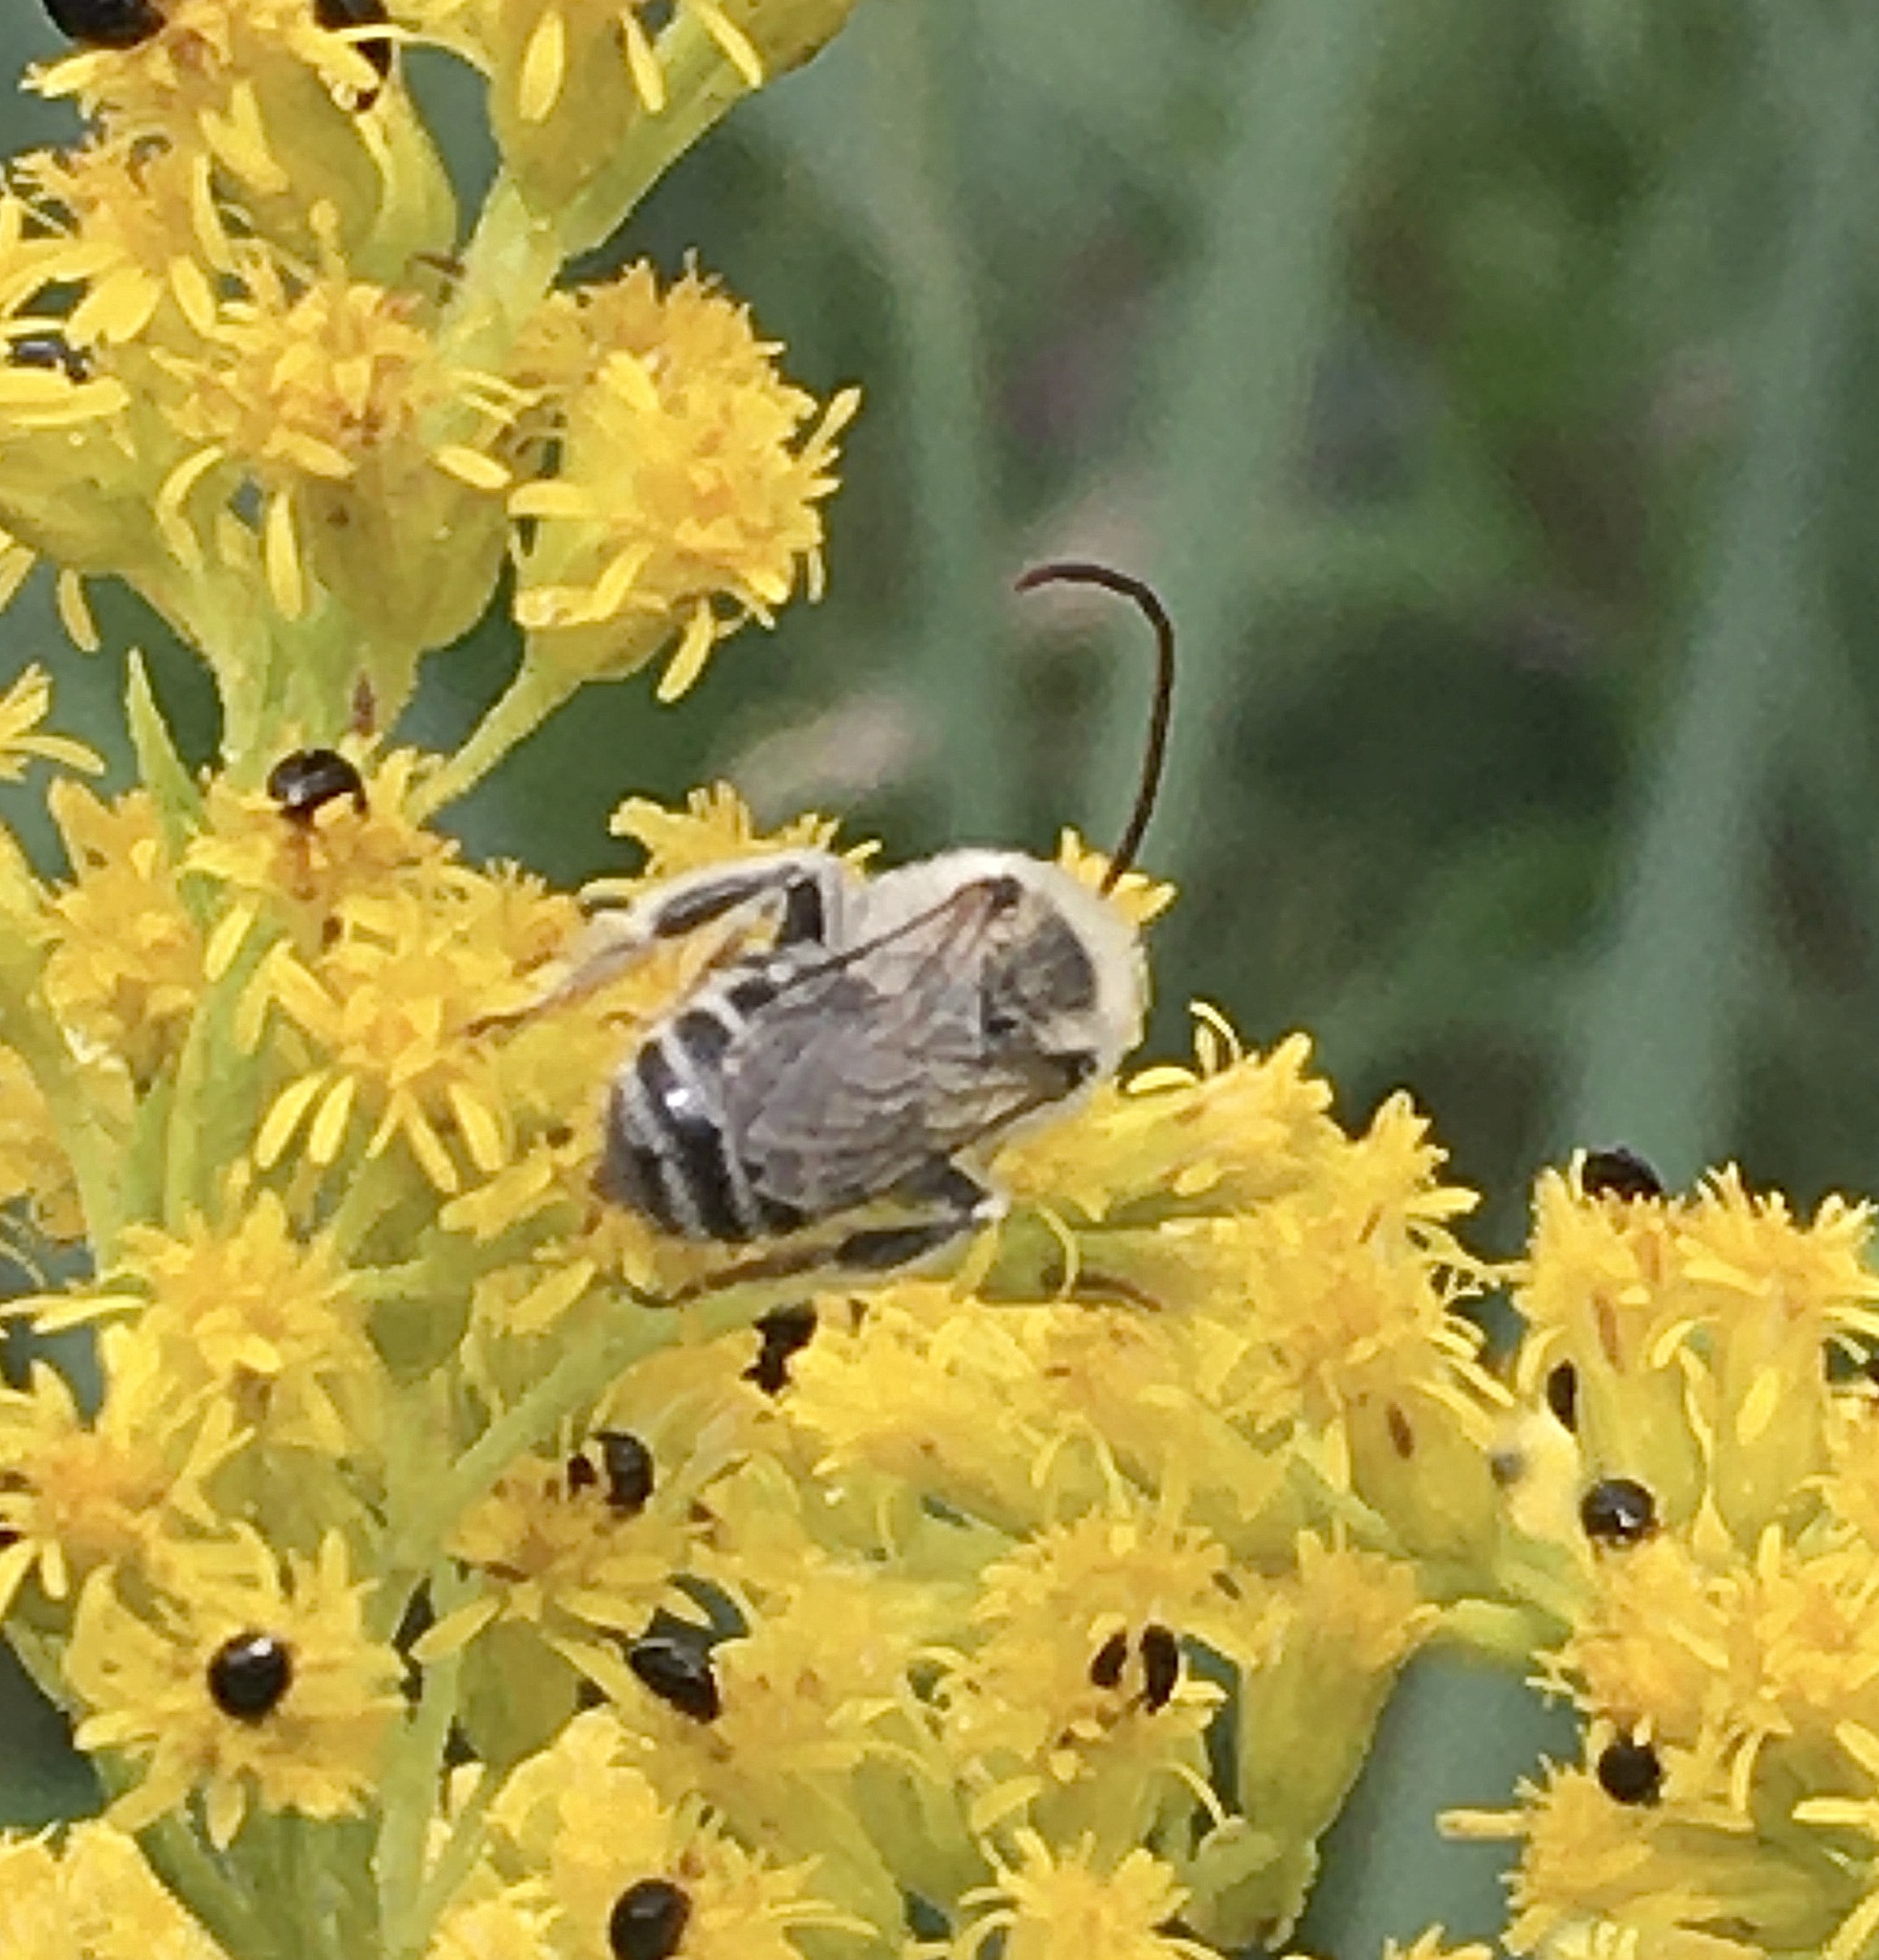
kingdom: Animalia
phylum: Arthropoda
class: Insecta
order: Hymenoptera
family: Apidae
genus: Melissodes
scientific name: Melissodes druriellus
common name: Drury's long-horned bee
